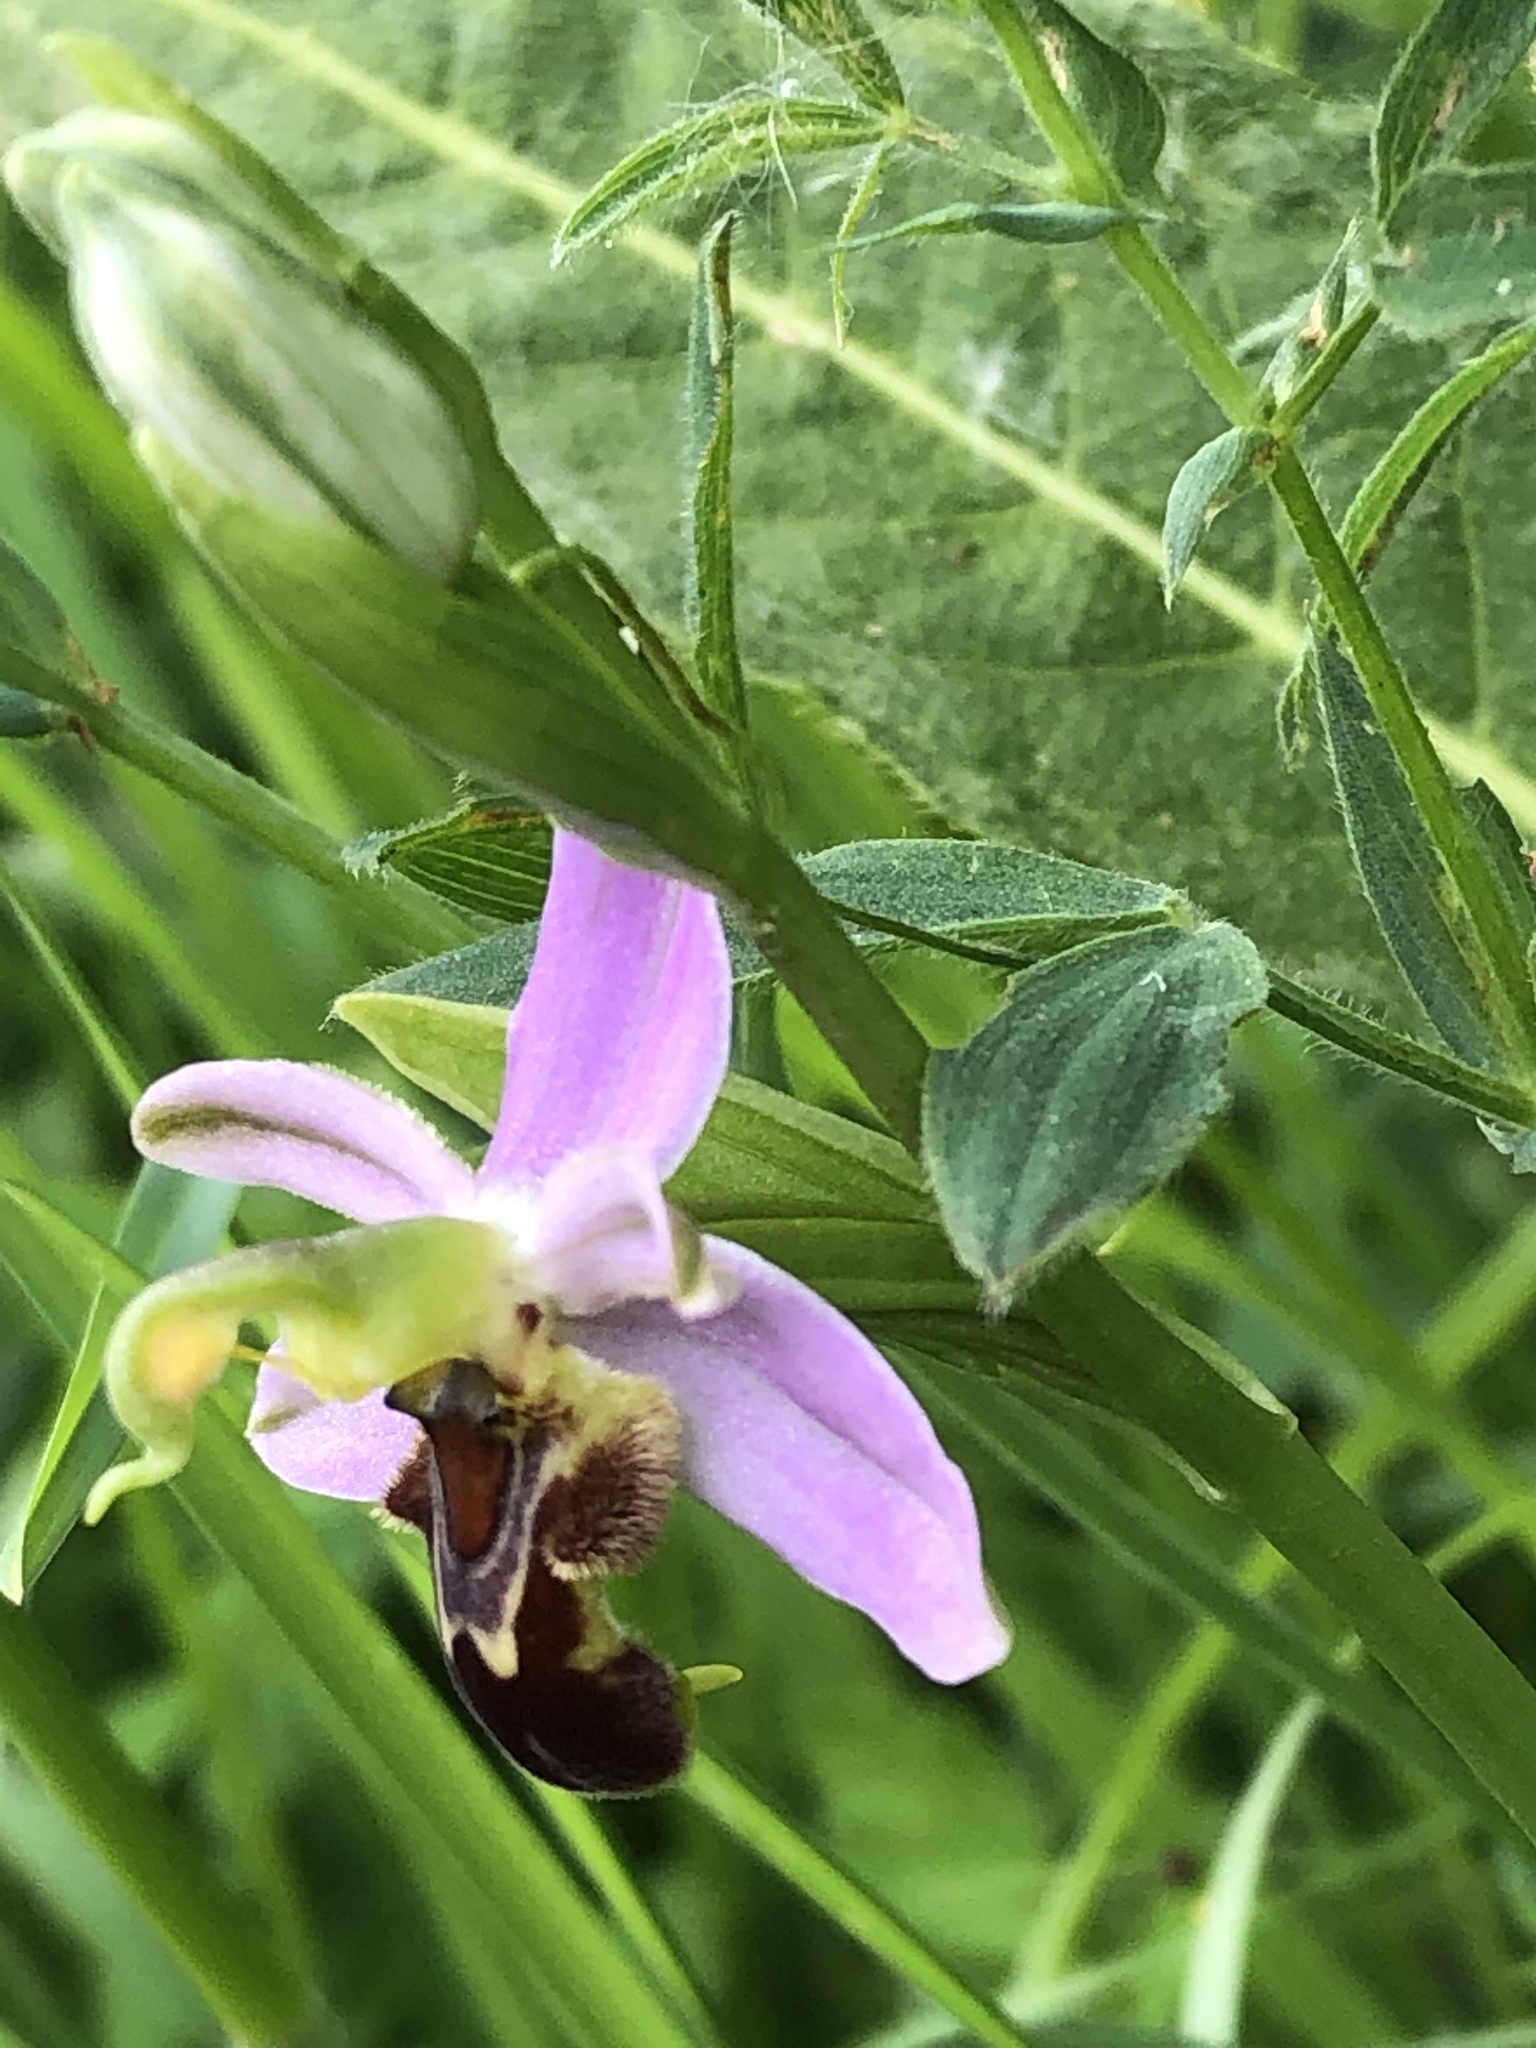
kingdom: Plantae
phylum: Tracheophyta
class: Liliopsida
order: Asparagales
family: Orchidaceae
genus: Ophrys
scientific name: Ophrys apifera
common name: Bee orchid
